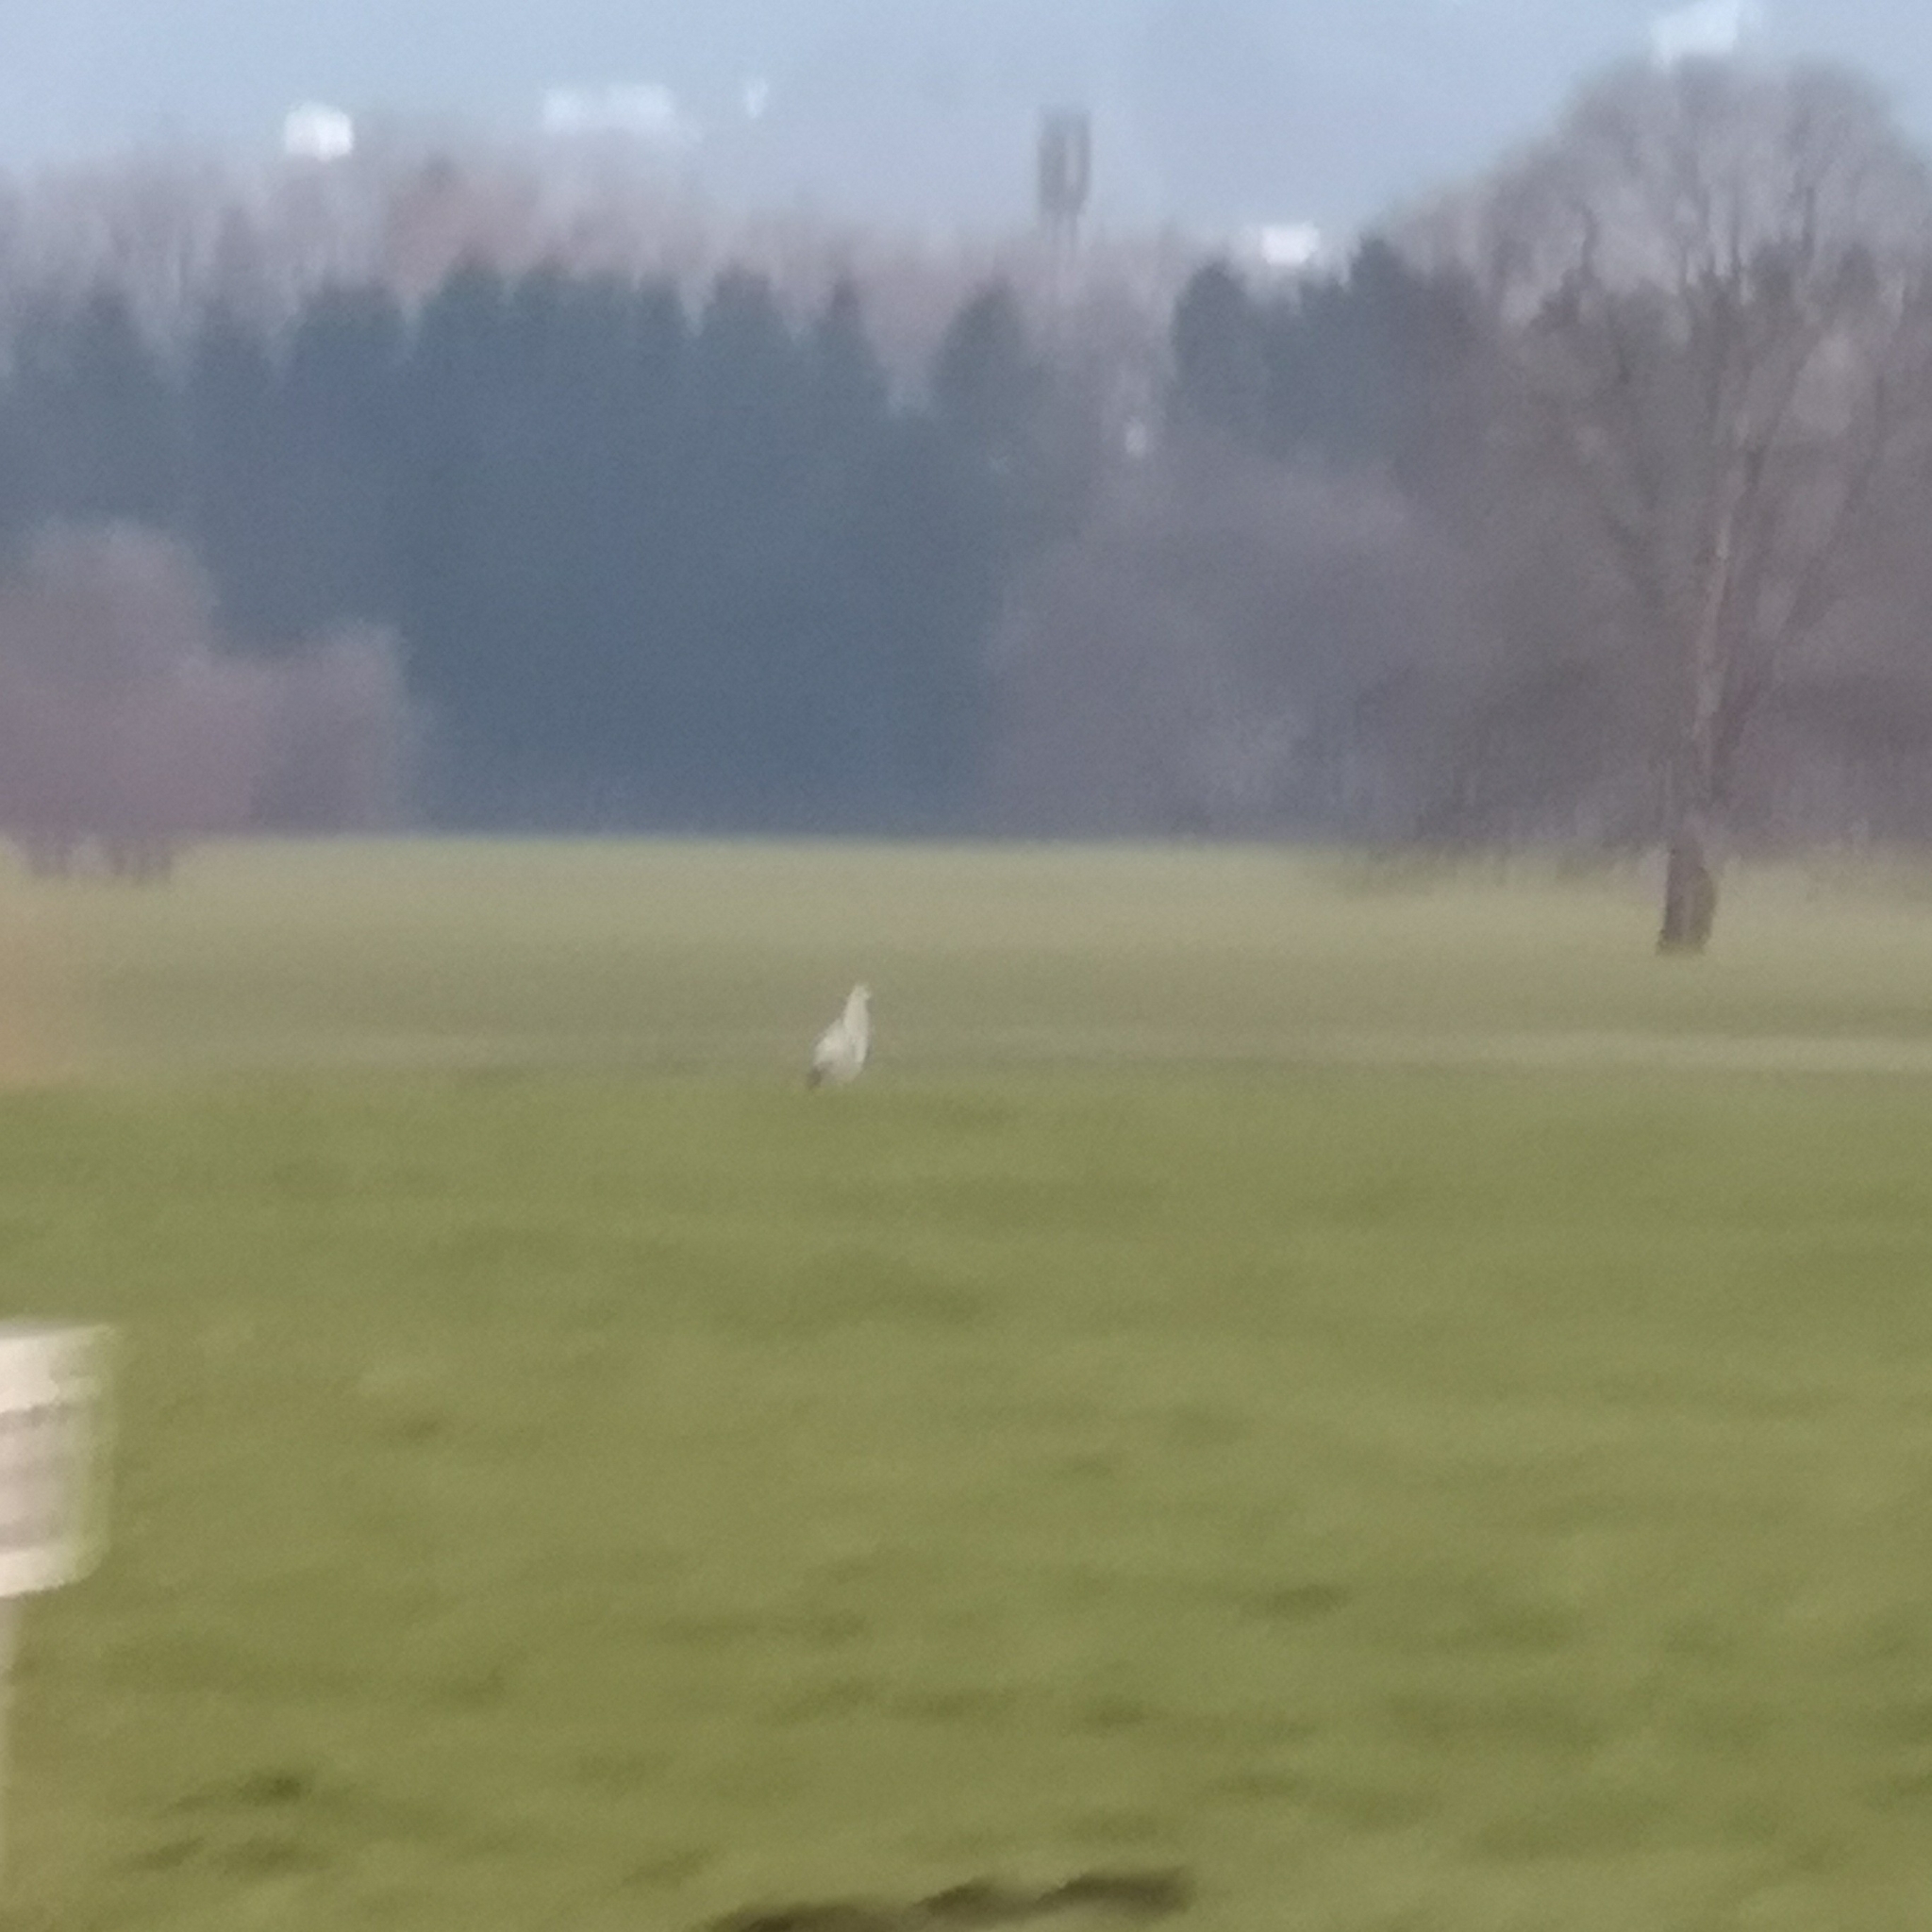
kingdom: Animalia
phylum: Chordata
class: Aves
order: Ciconiiformes
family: Ciconiidae
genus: Ciconia
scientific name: Ciconia ciconia
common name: White stork
